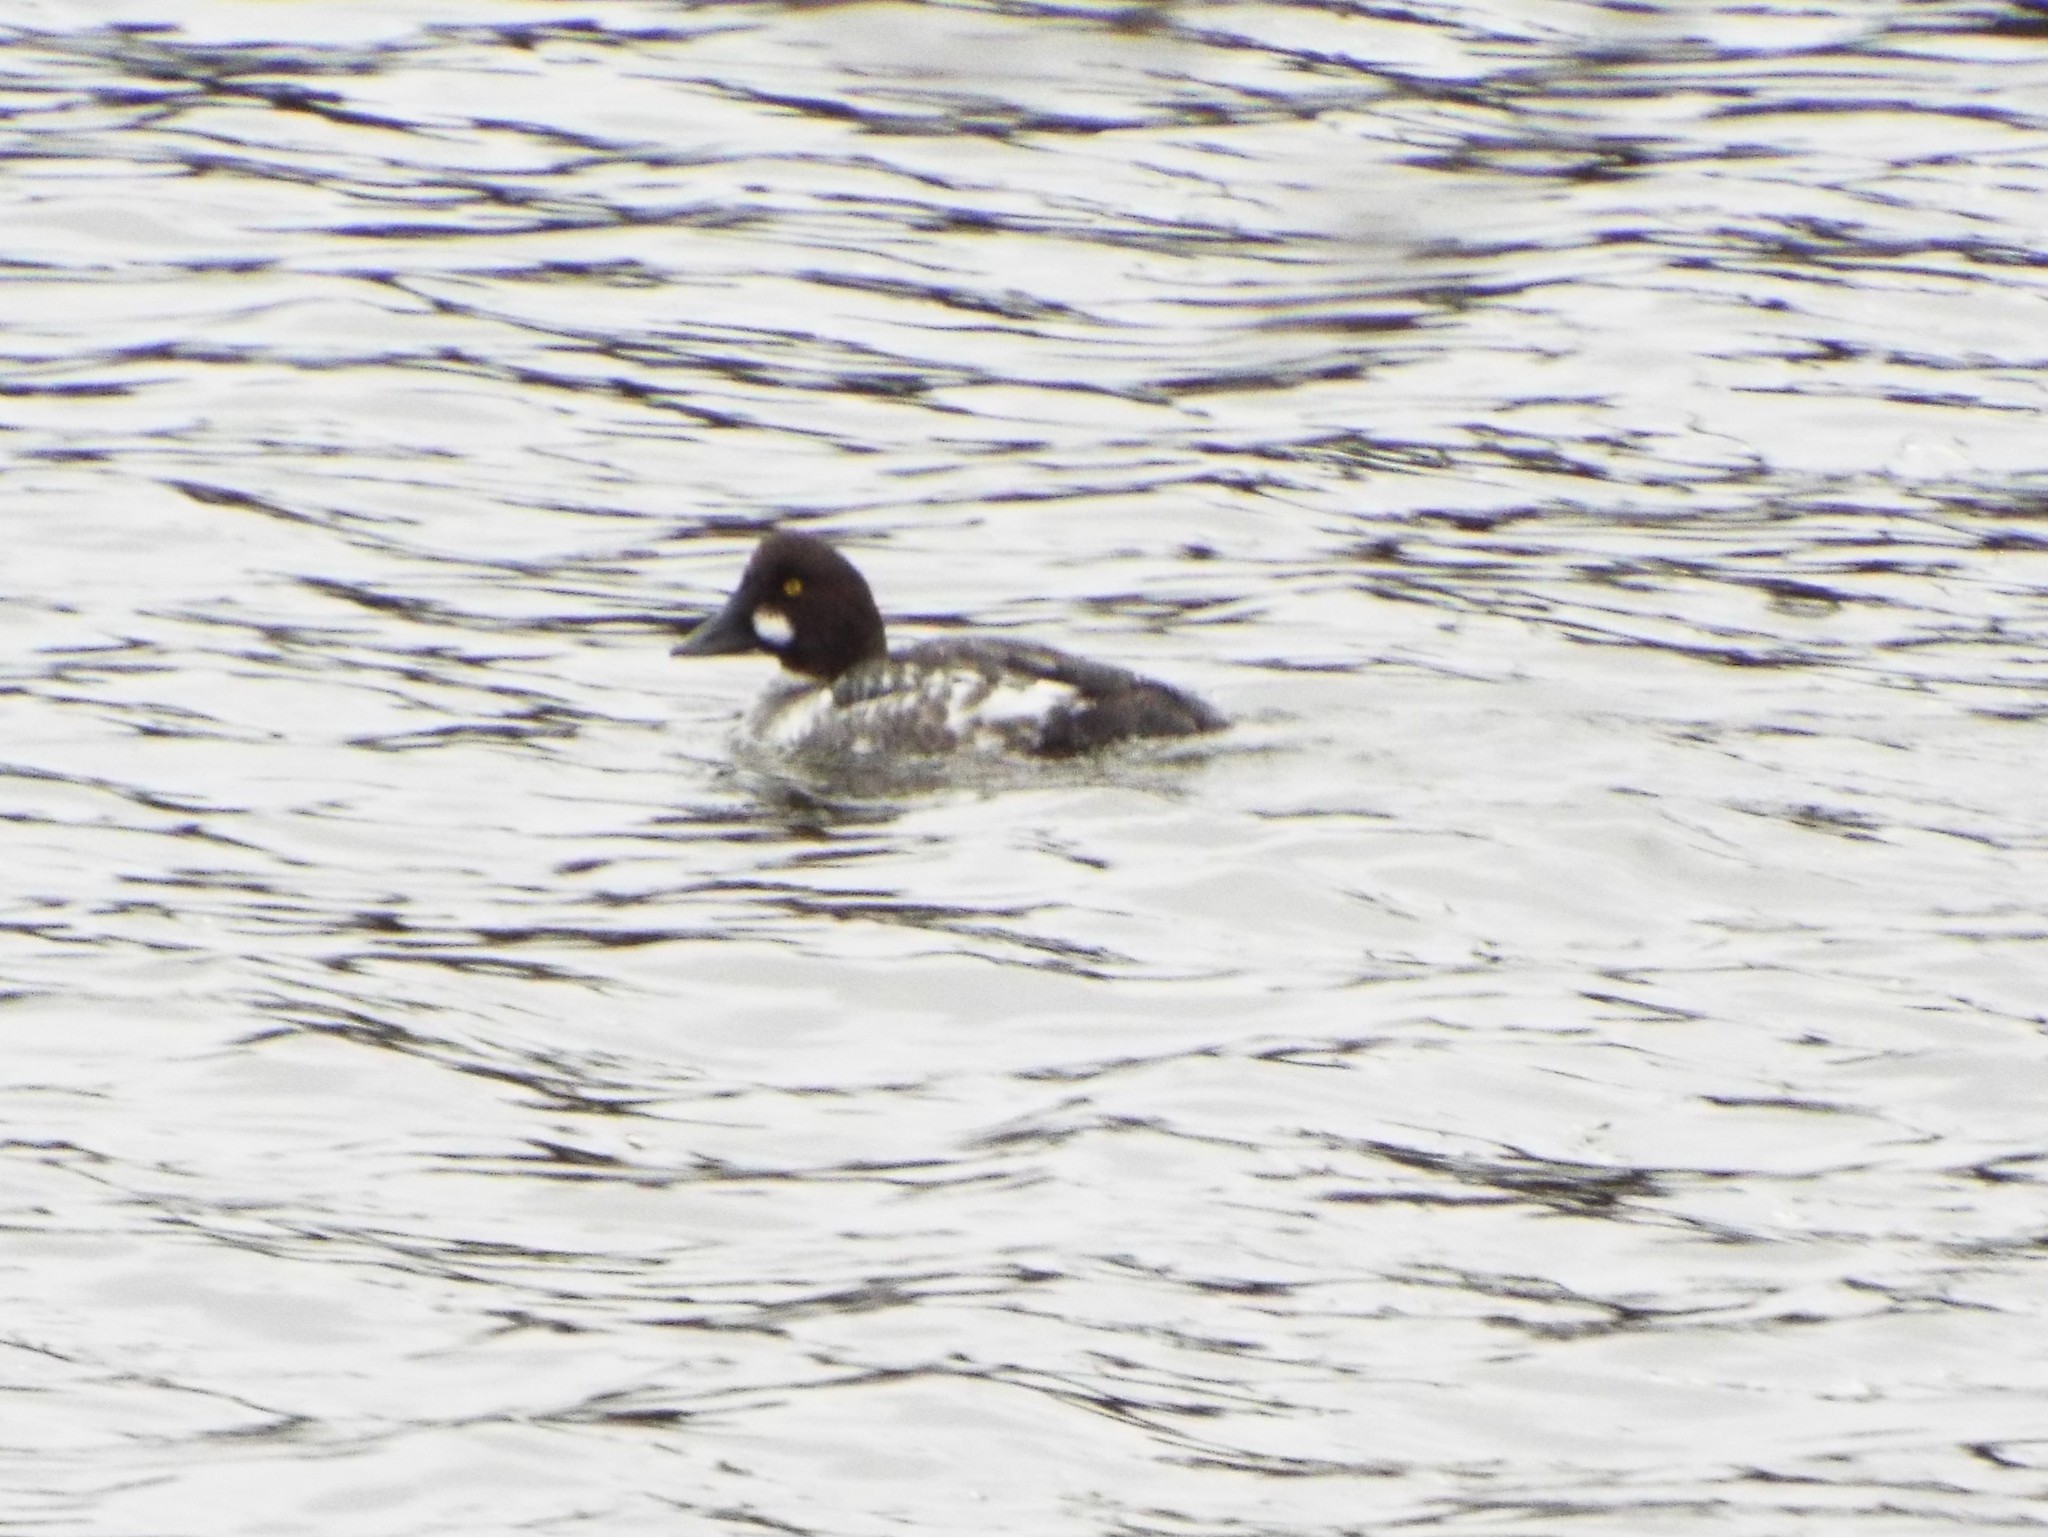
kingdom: Animalia
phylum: Chordata
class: Aves
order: Anseriformes
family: Anatidae
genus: Bucephala
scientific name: Bucephala clangula
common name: Common goldeneye
